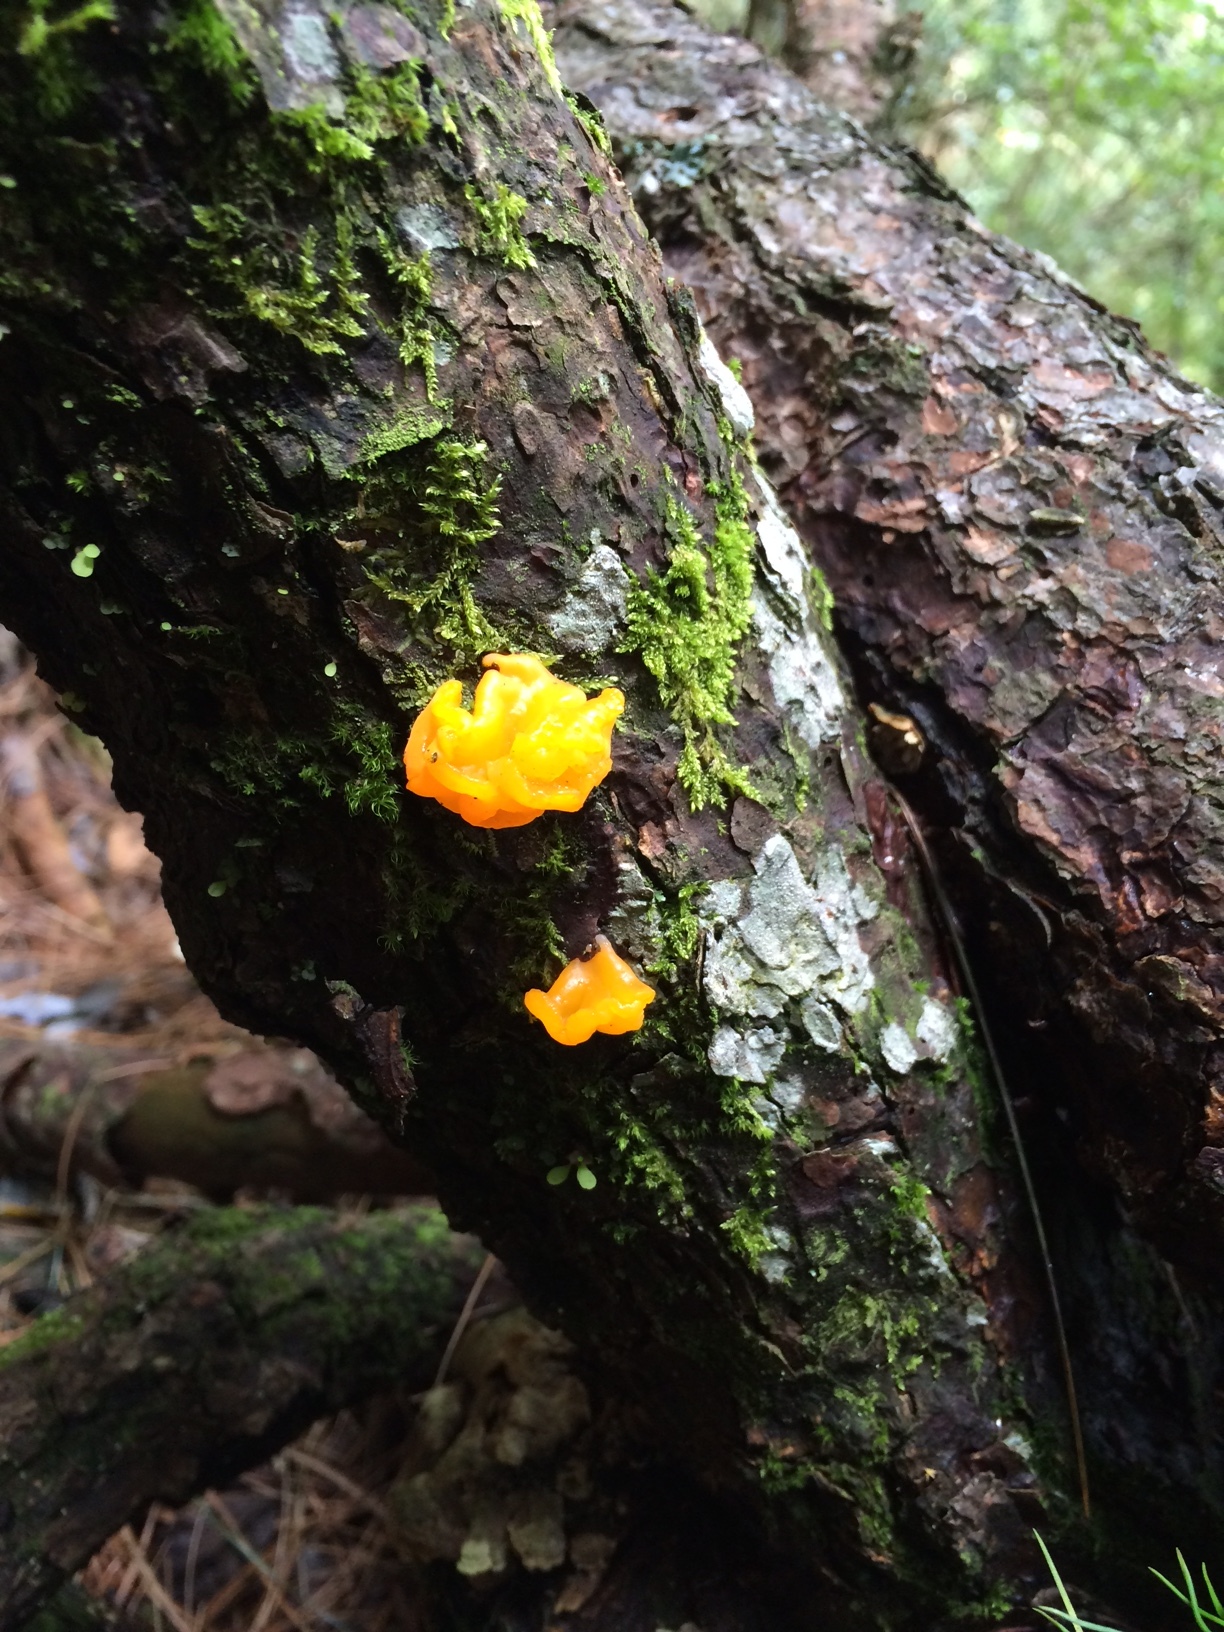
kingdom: Fungi
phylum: Basidiomycota
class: Dacrymycetes
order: Dacrymycetales
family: Dacrymycetaceae
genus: Dacrymyces
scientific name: Dacrymyces chrysospermus
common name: Orange jelly spot
